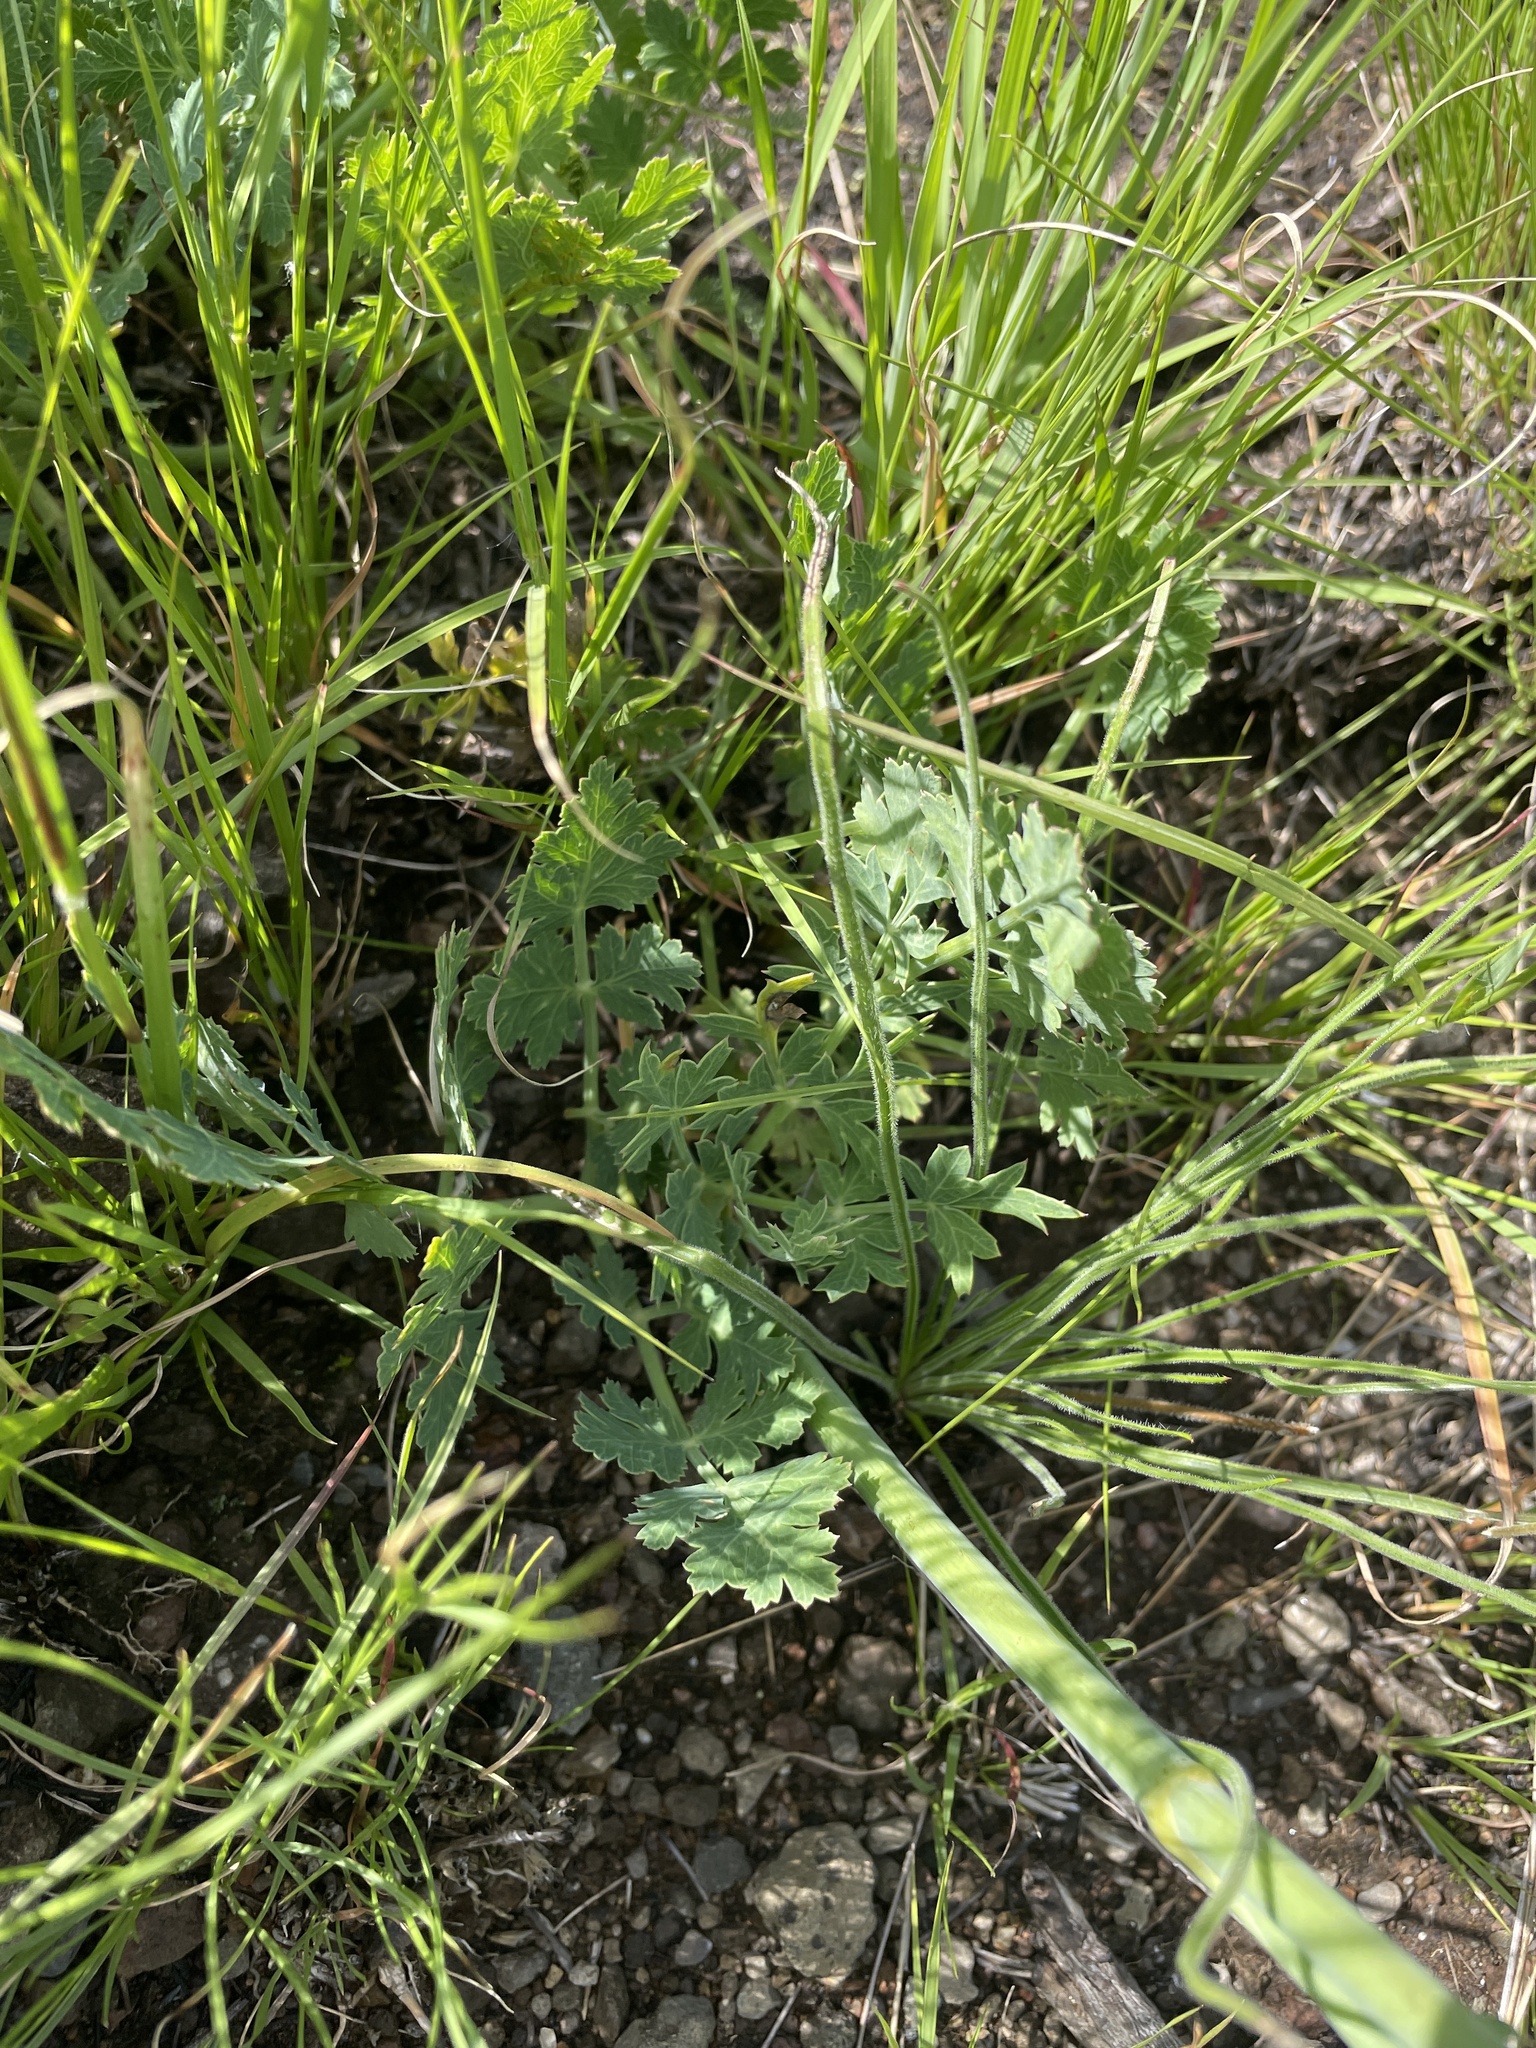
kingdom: Plantae
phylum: Tracheophyta
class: Magnoliopsida
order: Apiales
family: Apiaceae
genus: Afrosciadium
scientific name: Afrosciadium caffrum
